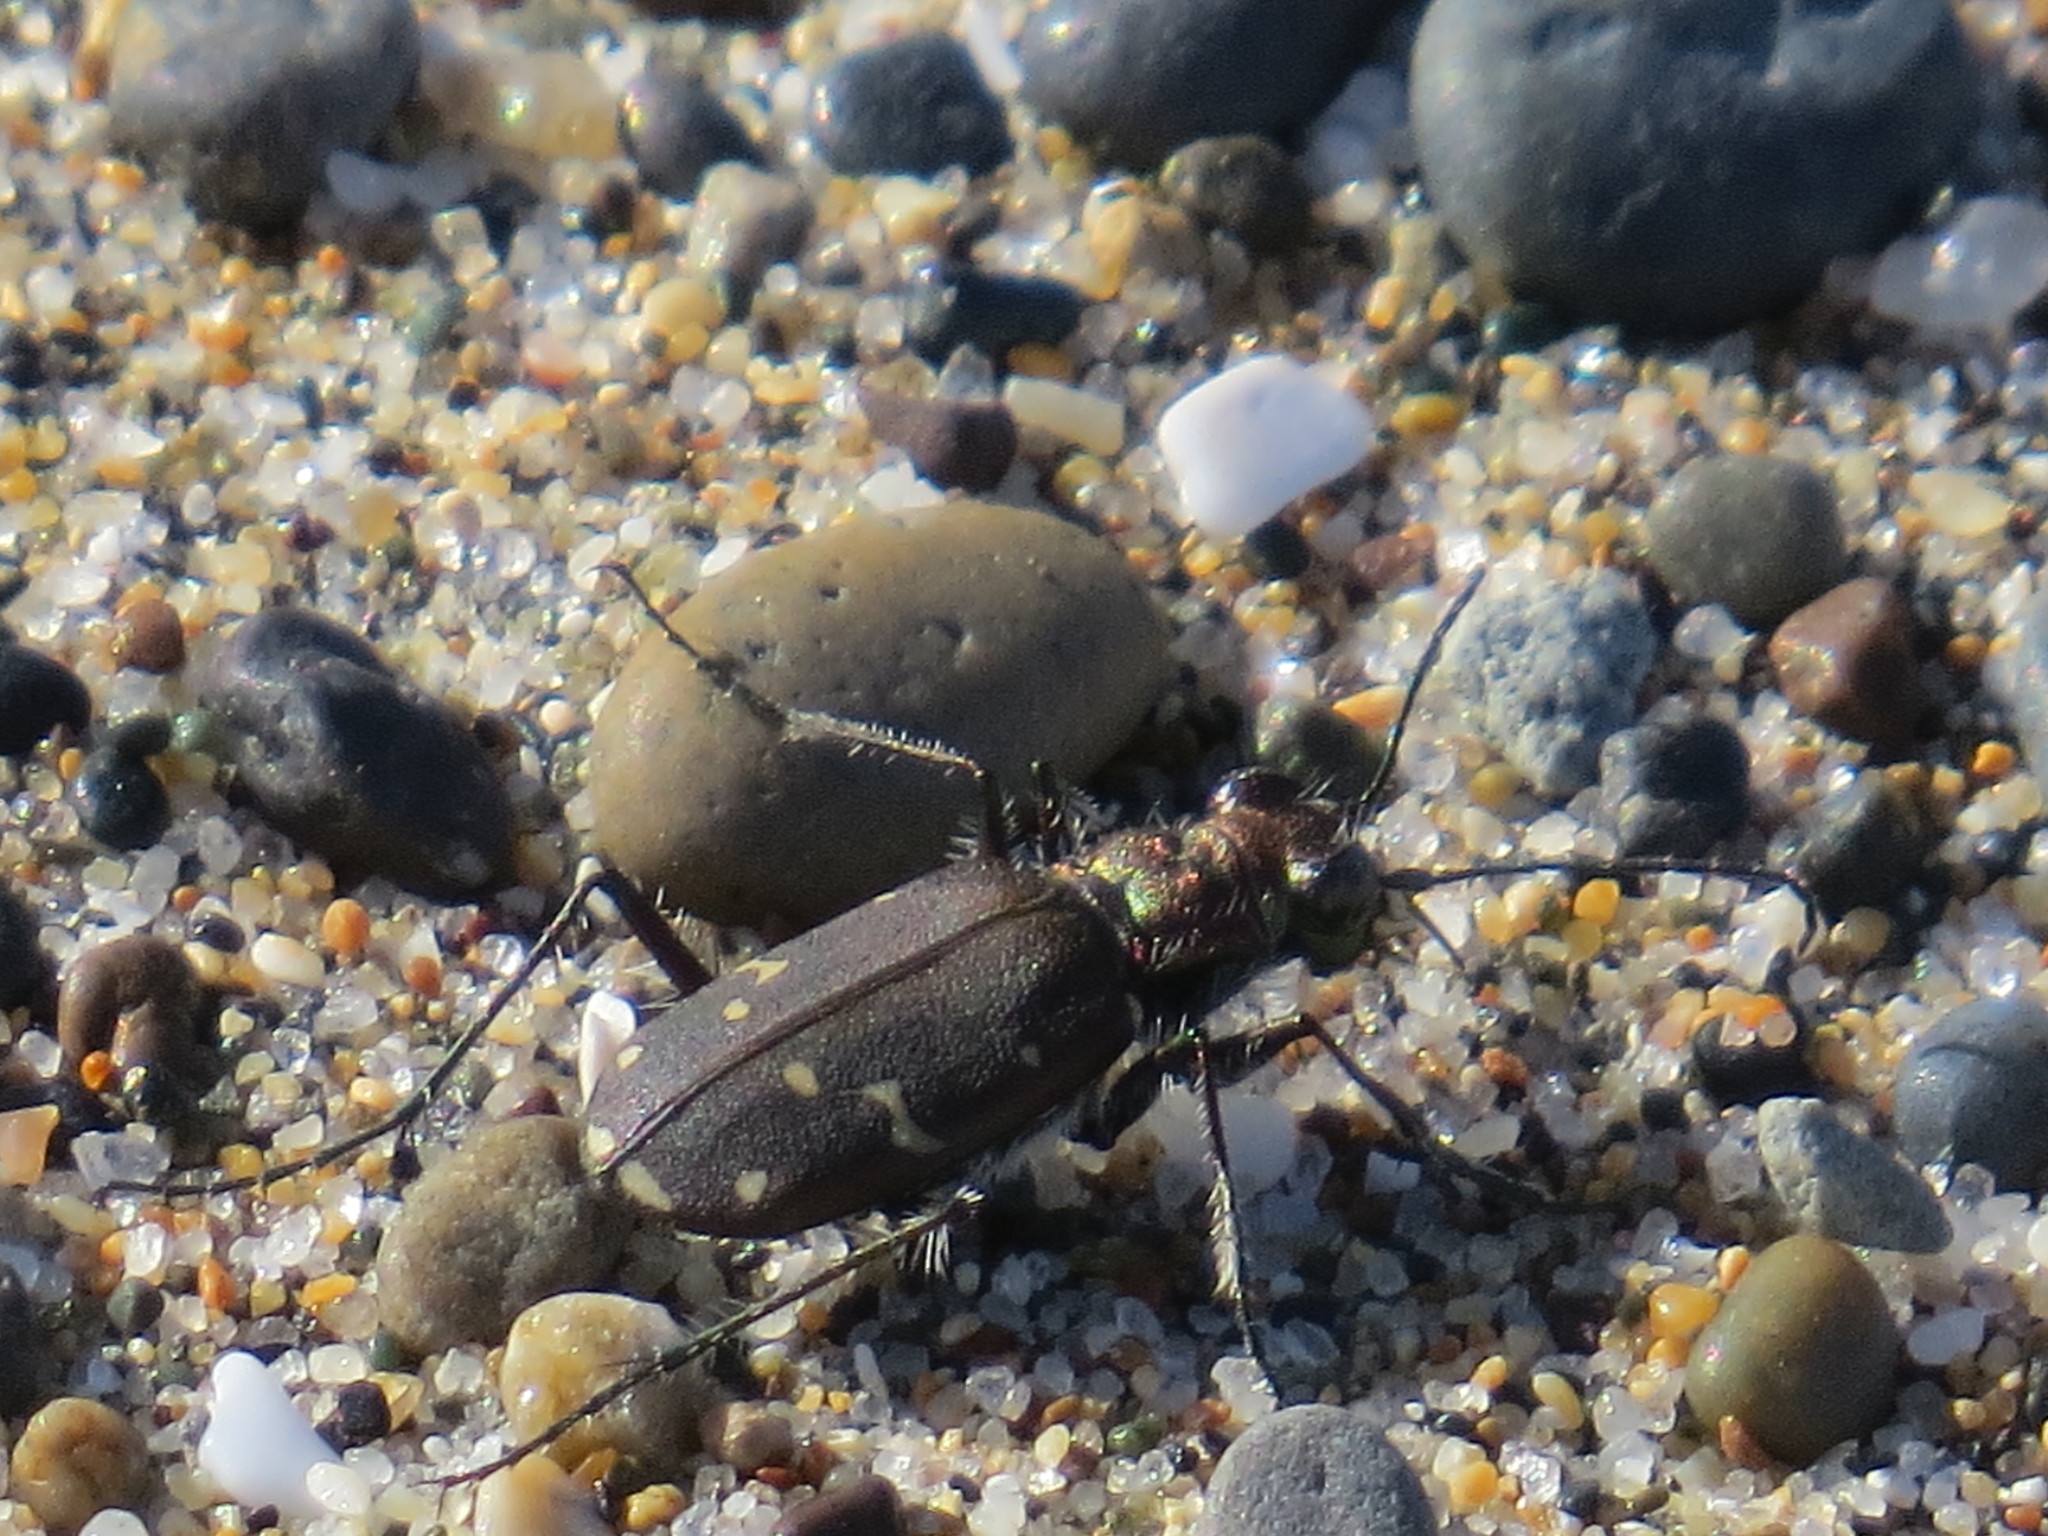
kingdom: Animalia
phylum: Arthropoda
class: Insecta
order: Coleoptera
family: Carabidae
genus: Cicindela
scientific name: Cicindela oregona
